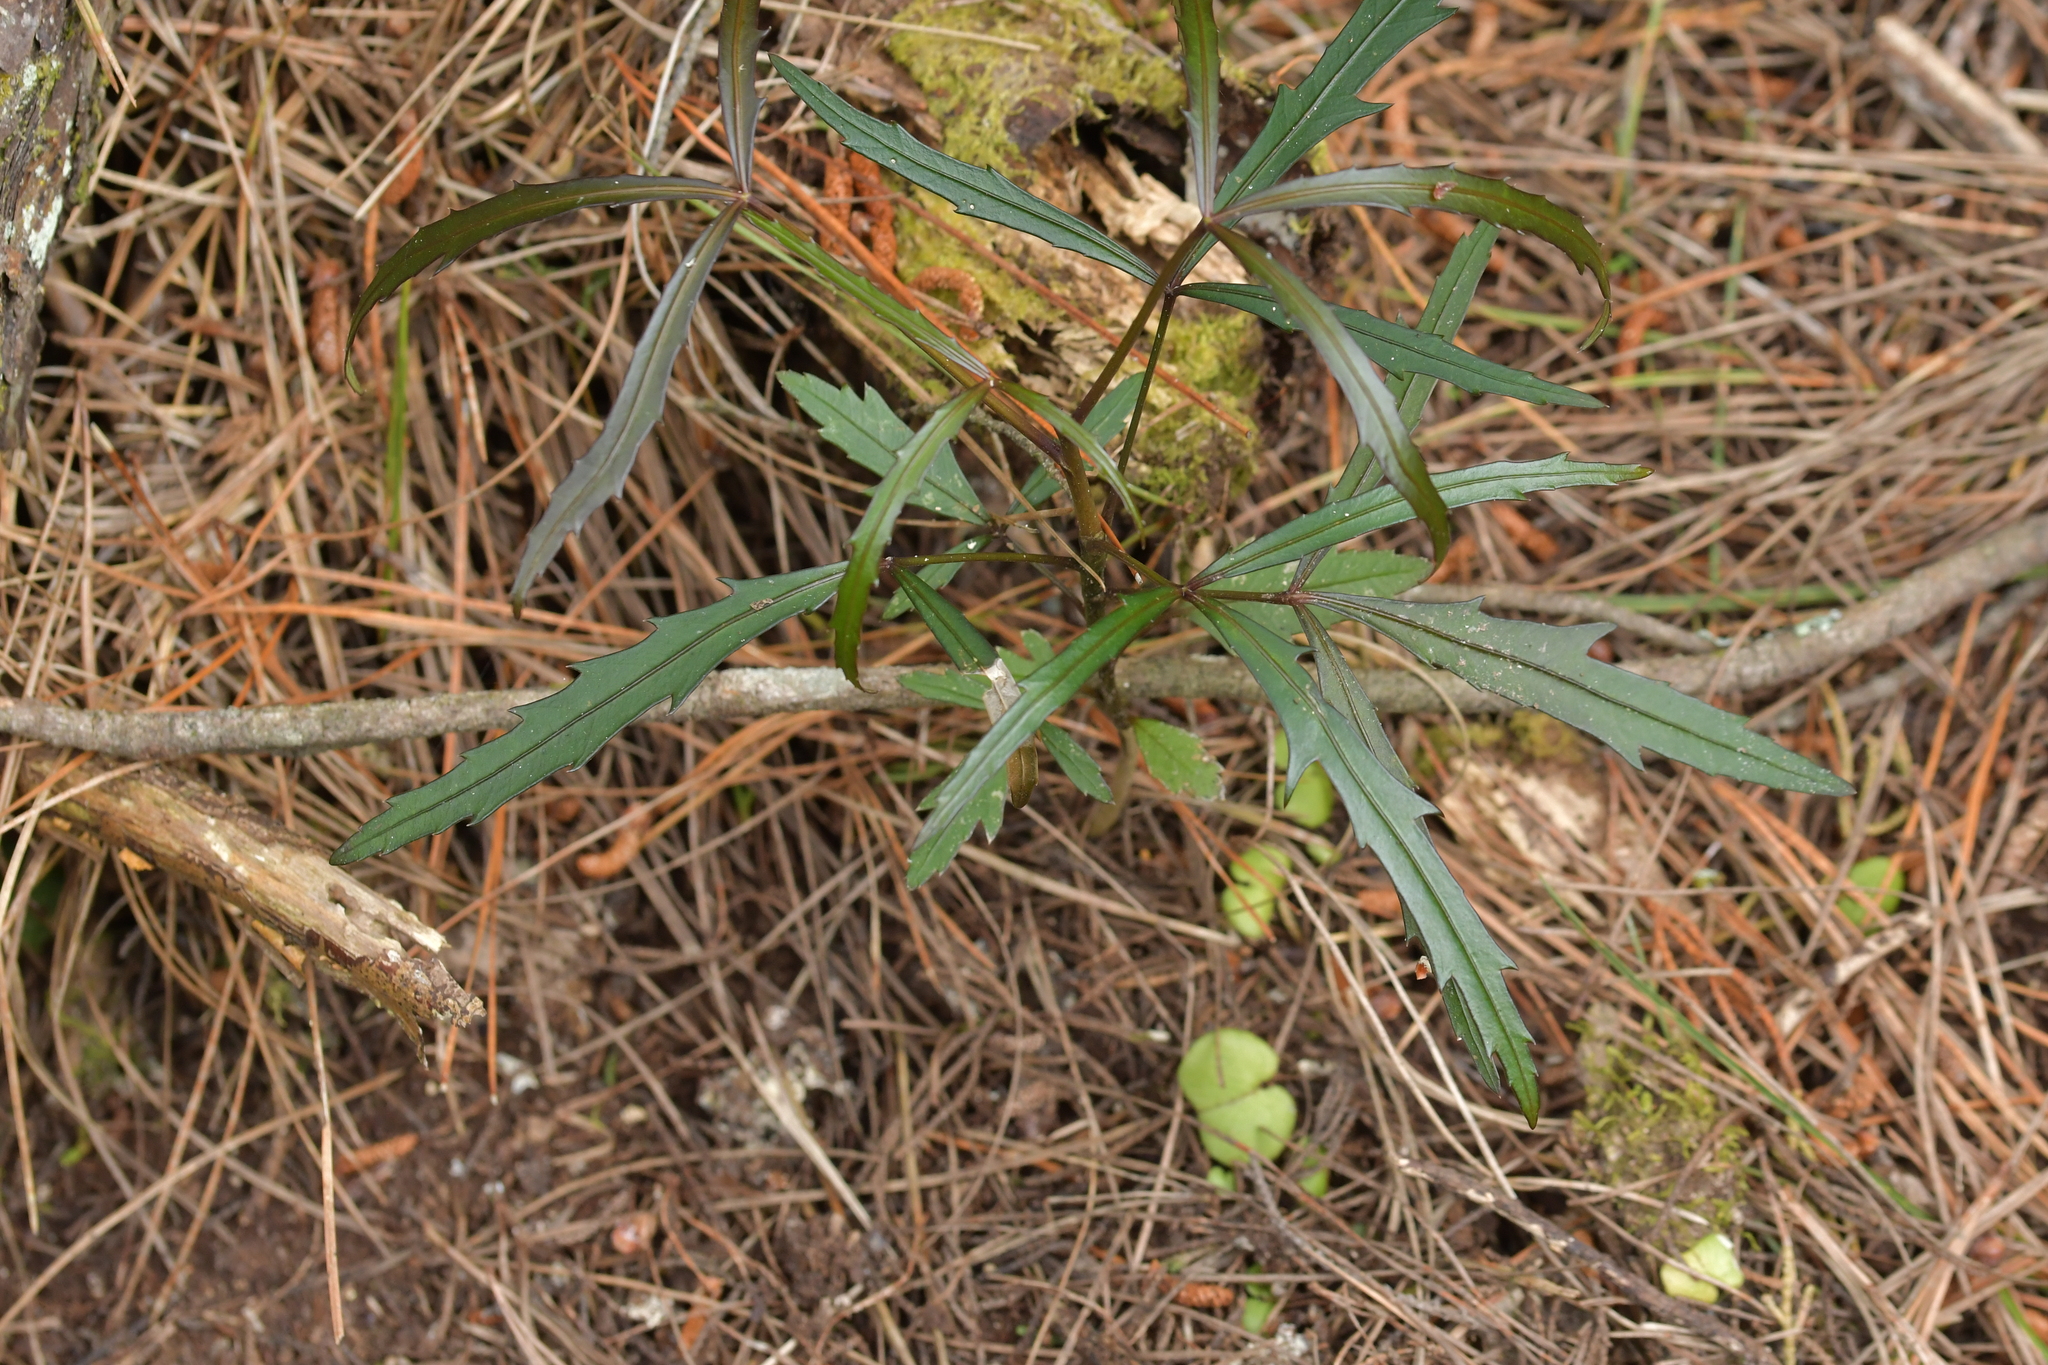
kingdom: Plantae
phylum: Tracheophyta
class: Magnoliopsida
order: Apiales
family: Araliaceae
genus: Pseudopanax
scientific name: Pseudopanax
